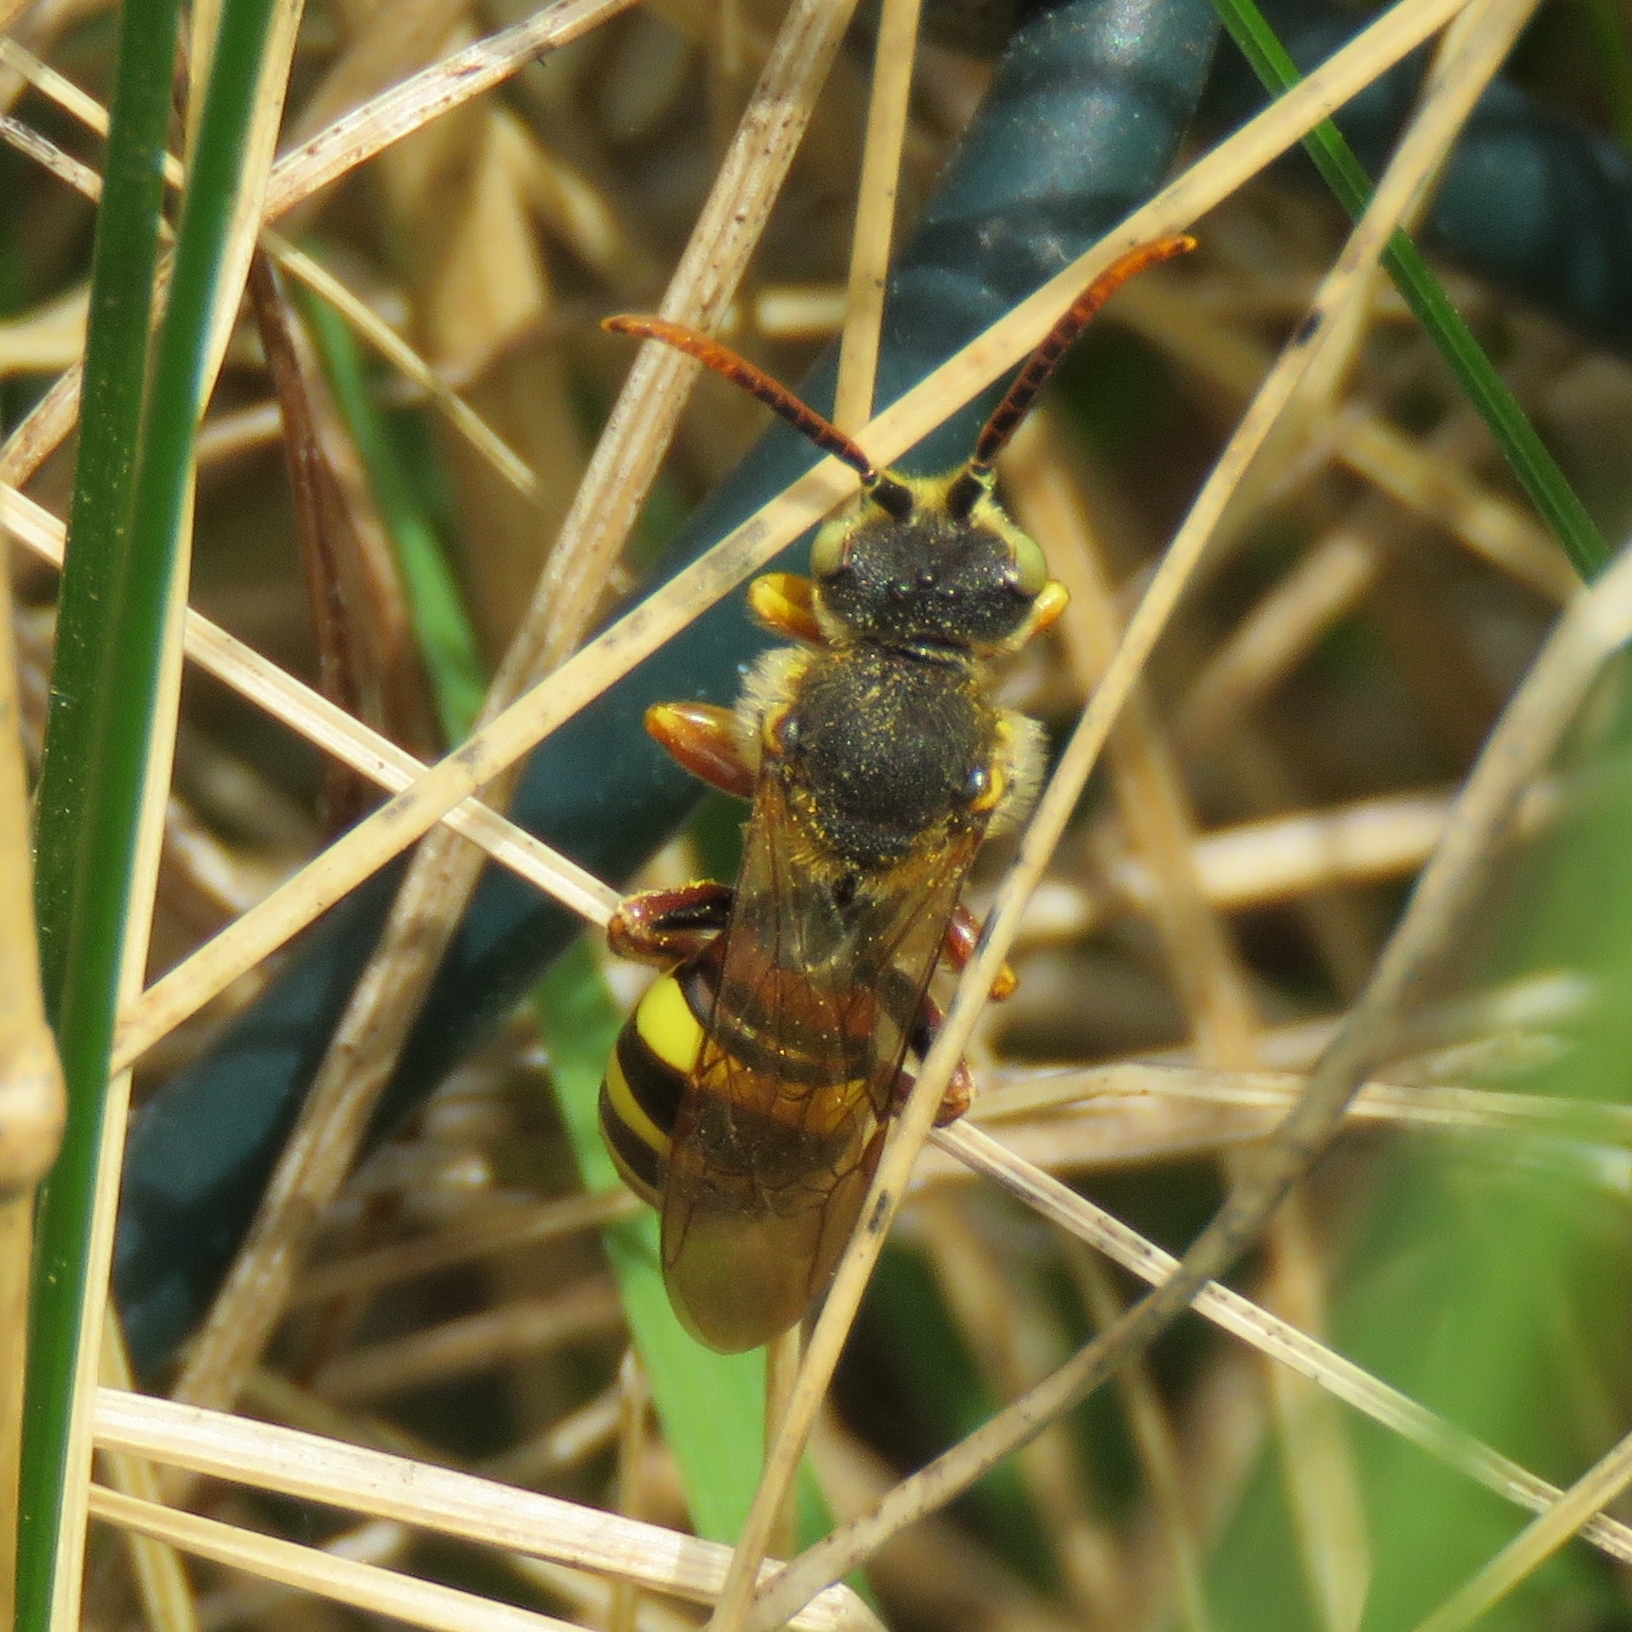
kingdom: Animalia
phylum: Arthropoda
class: Insecta
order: Hymenoptera
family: Apidae
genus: Nomada
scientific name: Nomada lathburiana
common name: Lathbury's nomad bee
